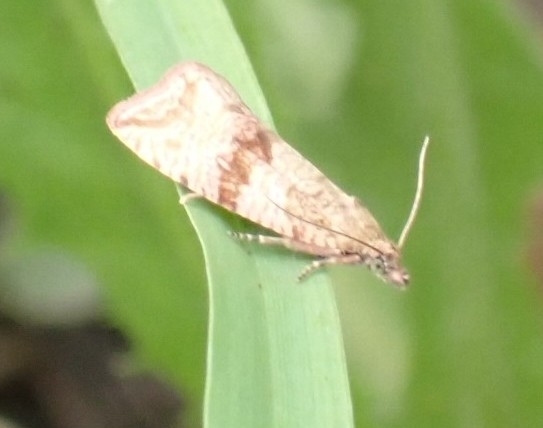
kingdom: Animalia
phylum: Arthropoda
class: Insecta
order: Lepidoptera
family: Tortricidae
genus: Celypha
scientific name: Celypha striana
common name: Barred marble
